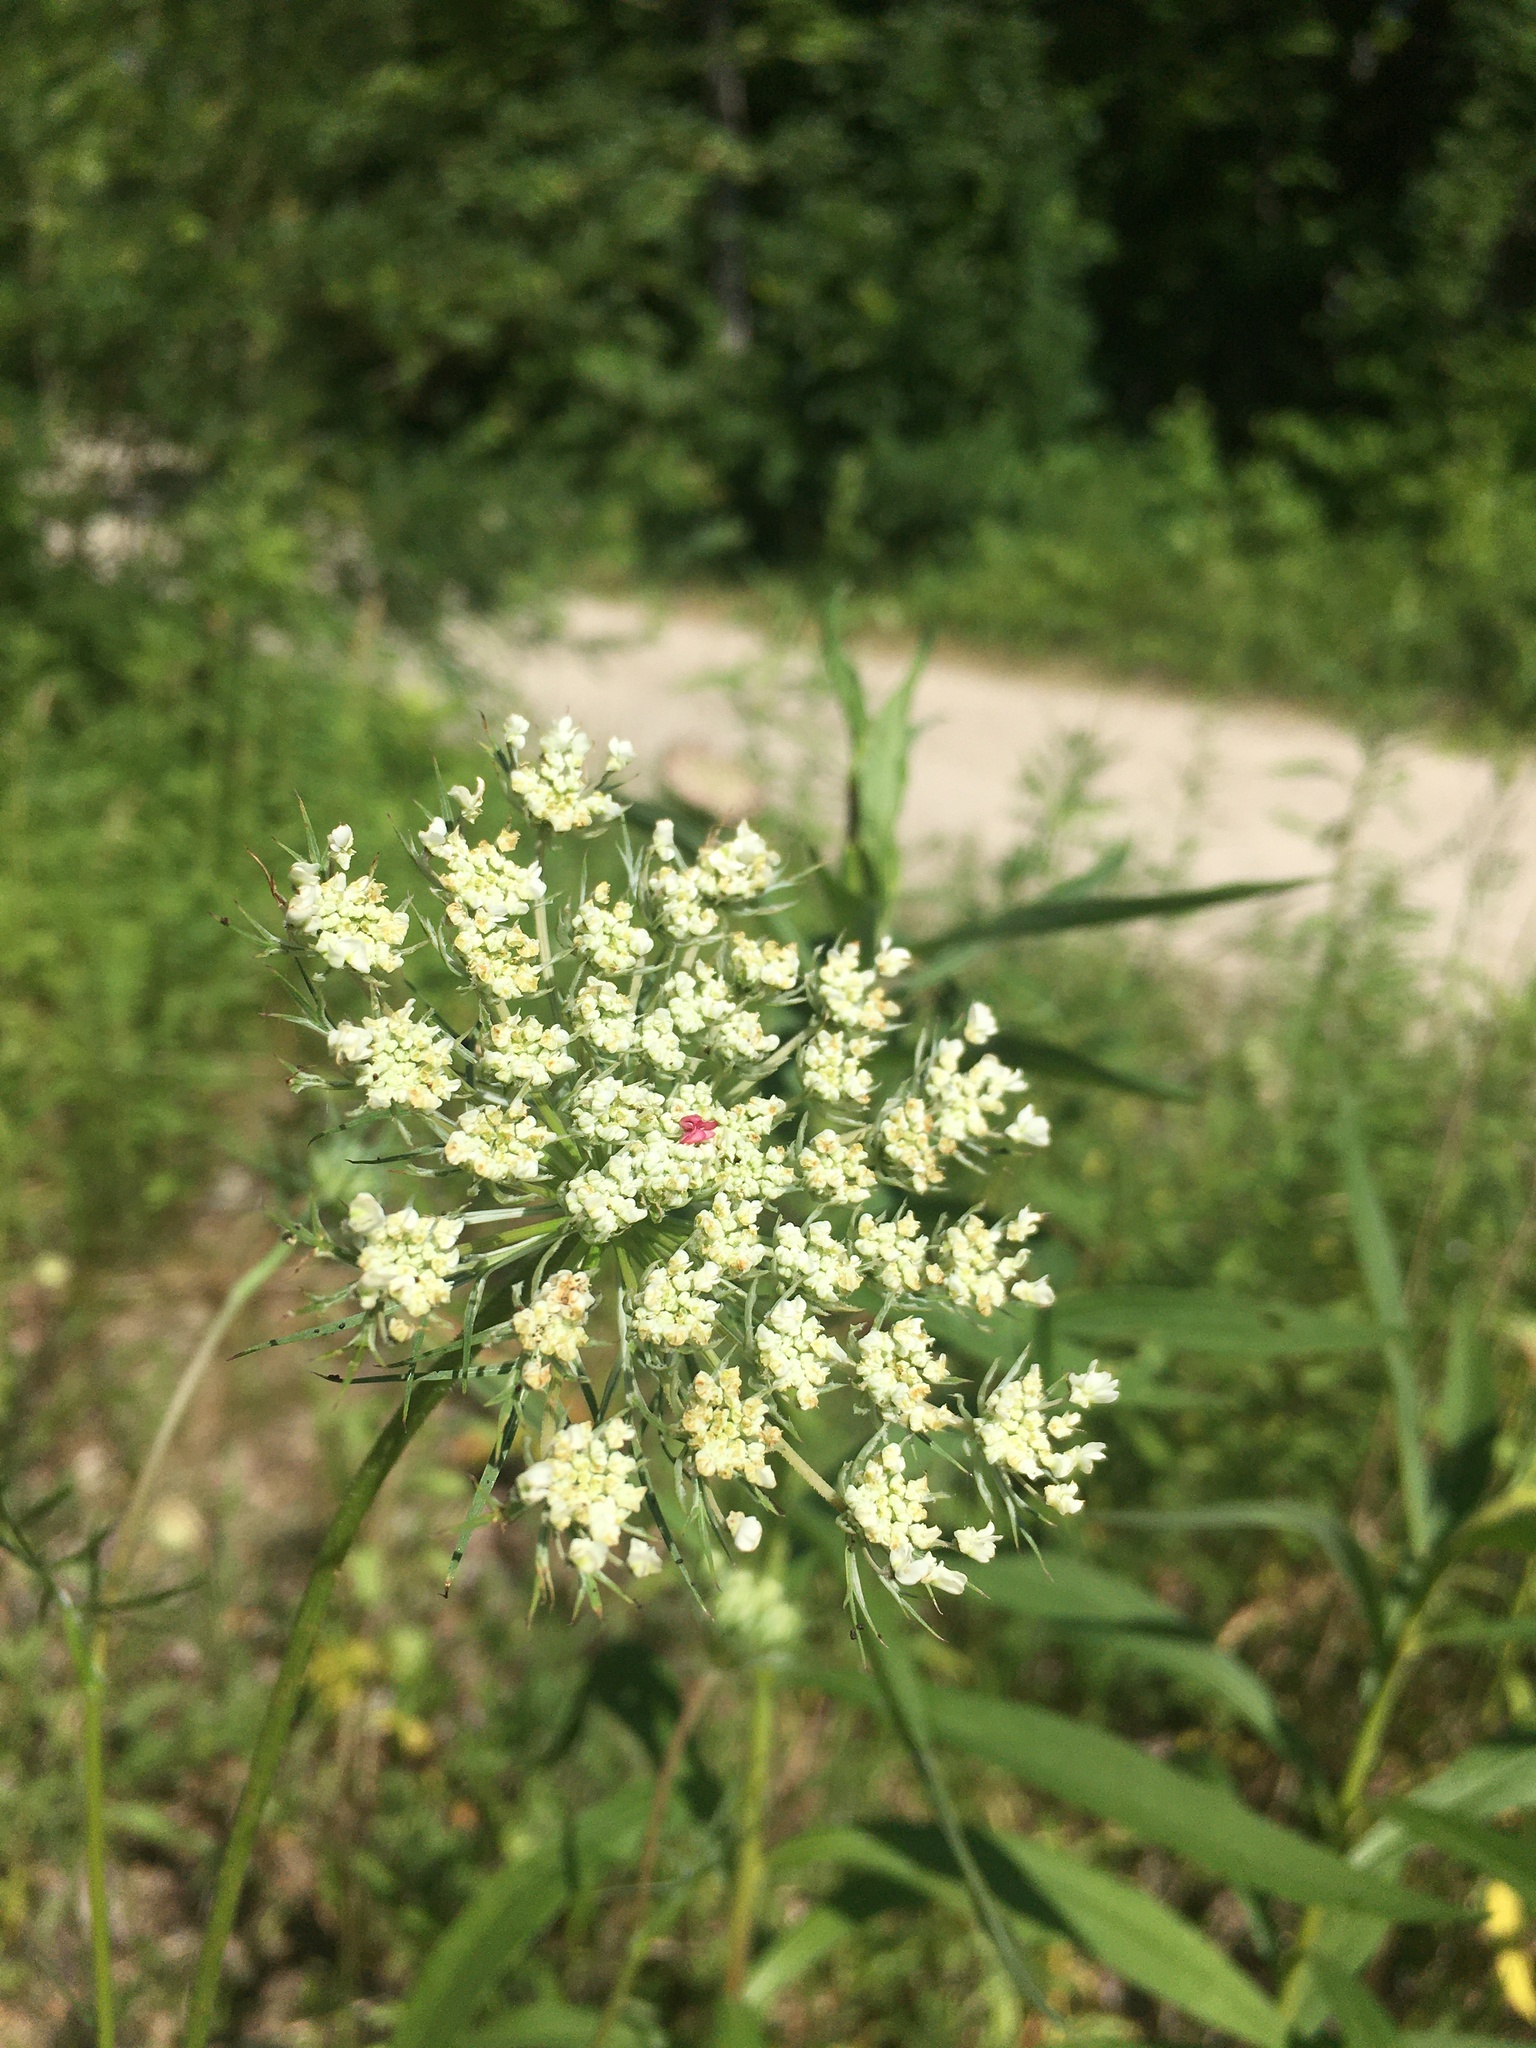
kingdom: Plantae
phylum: Tracheophyta
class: Magnoliopsida
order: Apiales
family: Apiaceae
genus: Daucus
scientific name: Daucus carota
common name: Wild carrot
